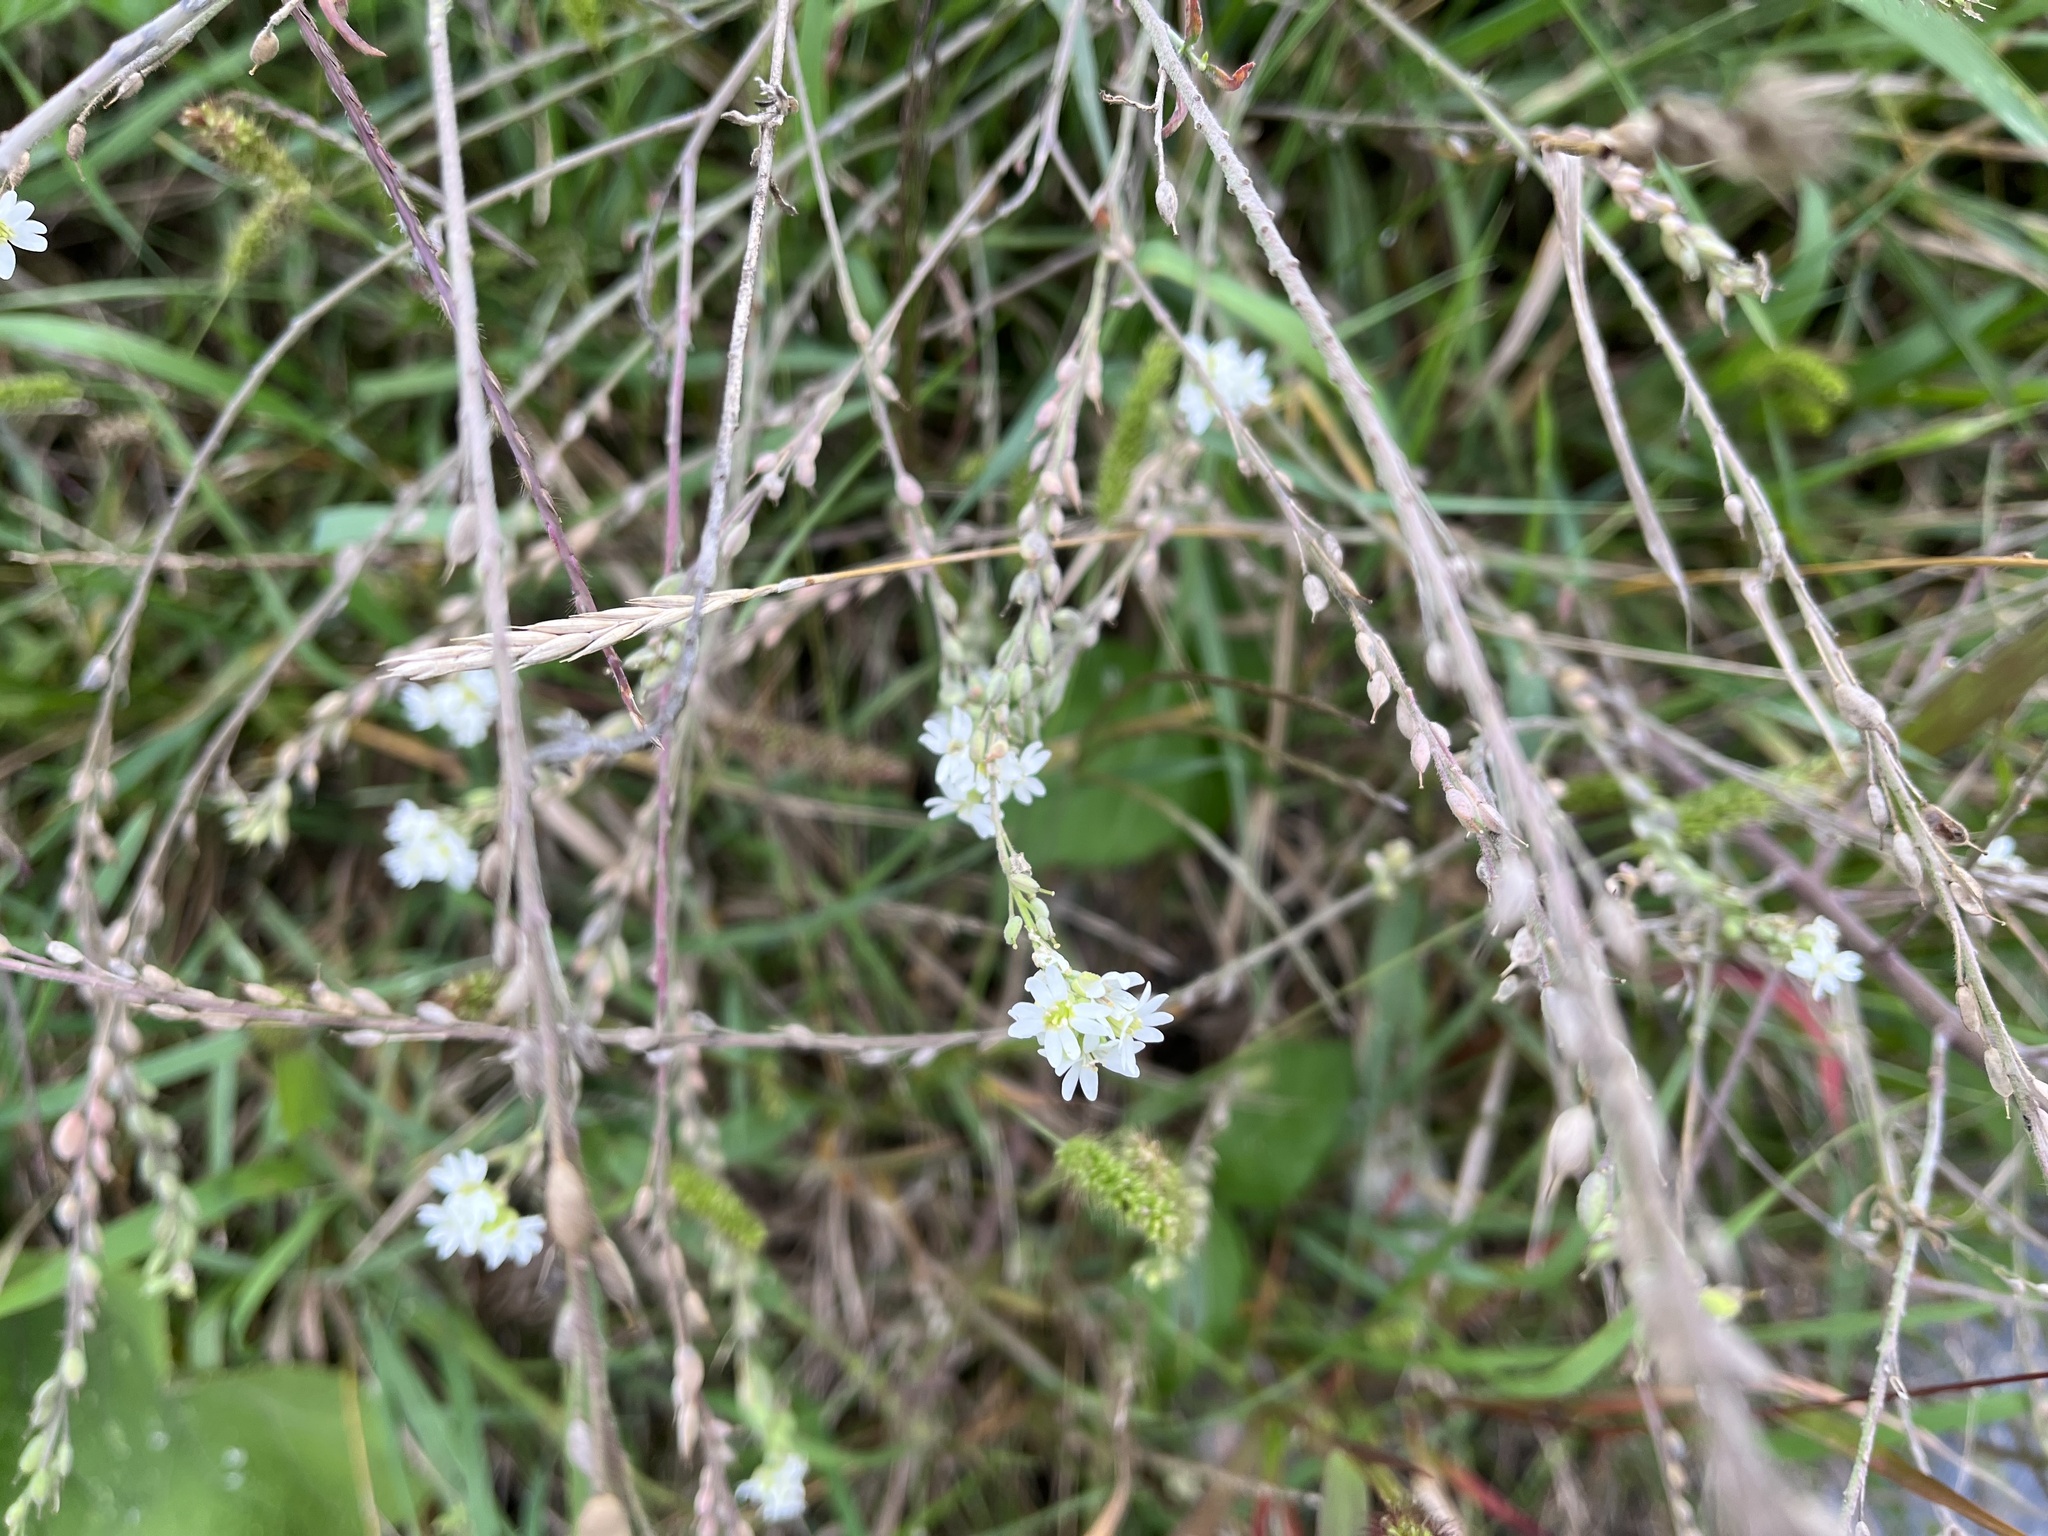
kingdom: Plantae
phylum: Tracheophyta
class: Magnoliopsida
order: Brassicales
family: Brassicaceae
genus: Berteroa
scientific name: Berteroa incana
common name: Hoary alison
